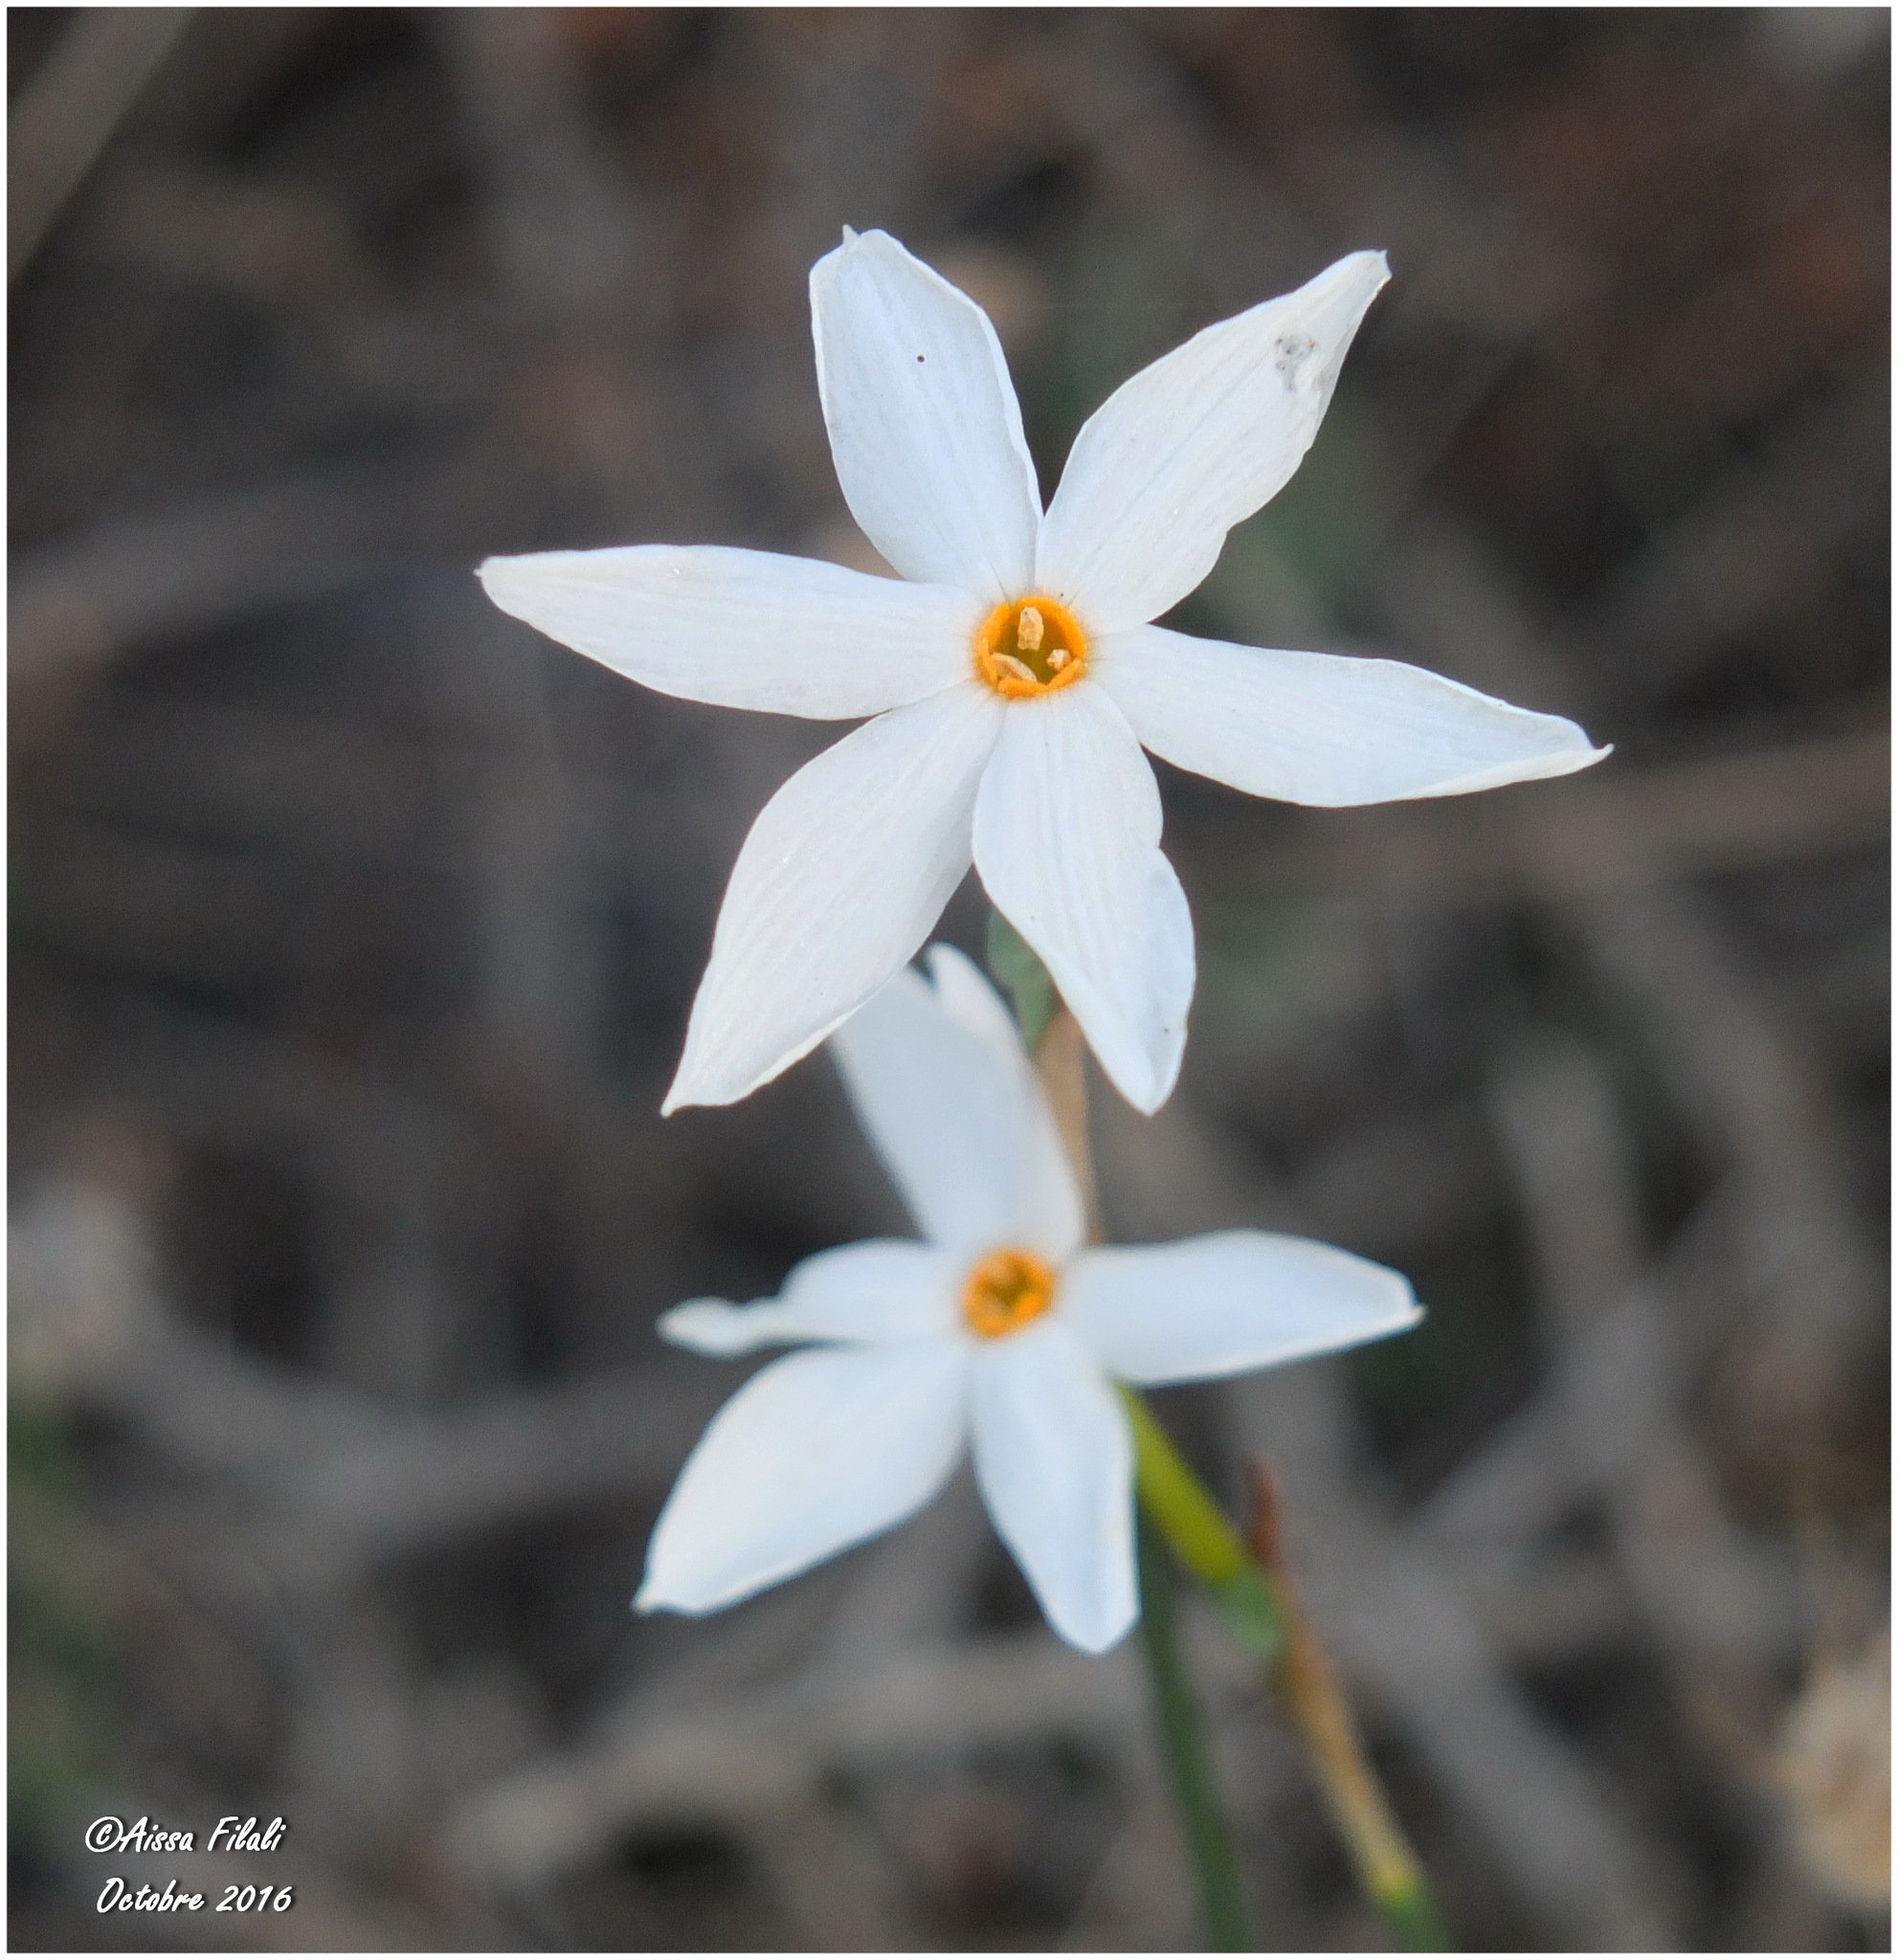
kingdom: Plantae
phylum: Tracheophyta
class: Liliopsida
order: Asparagales
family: Amaryllidaceae
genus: Narcissus
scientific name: Narcissus deficiens
